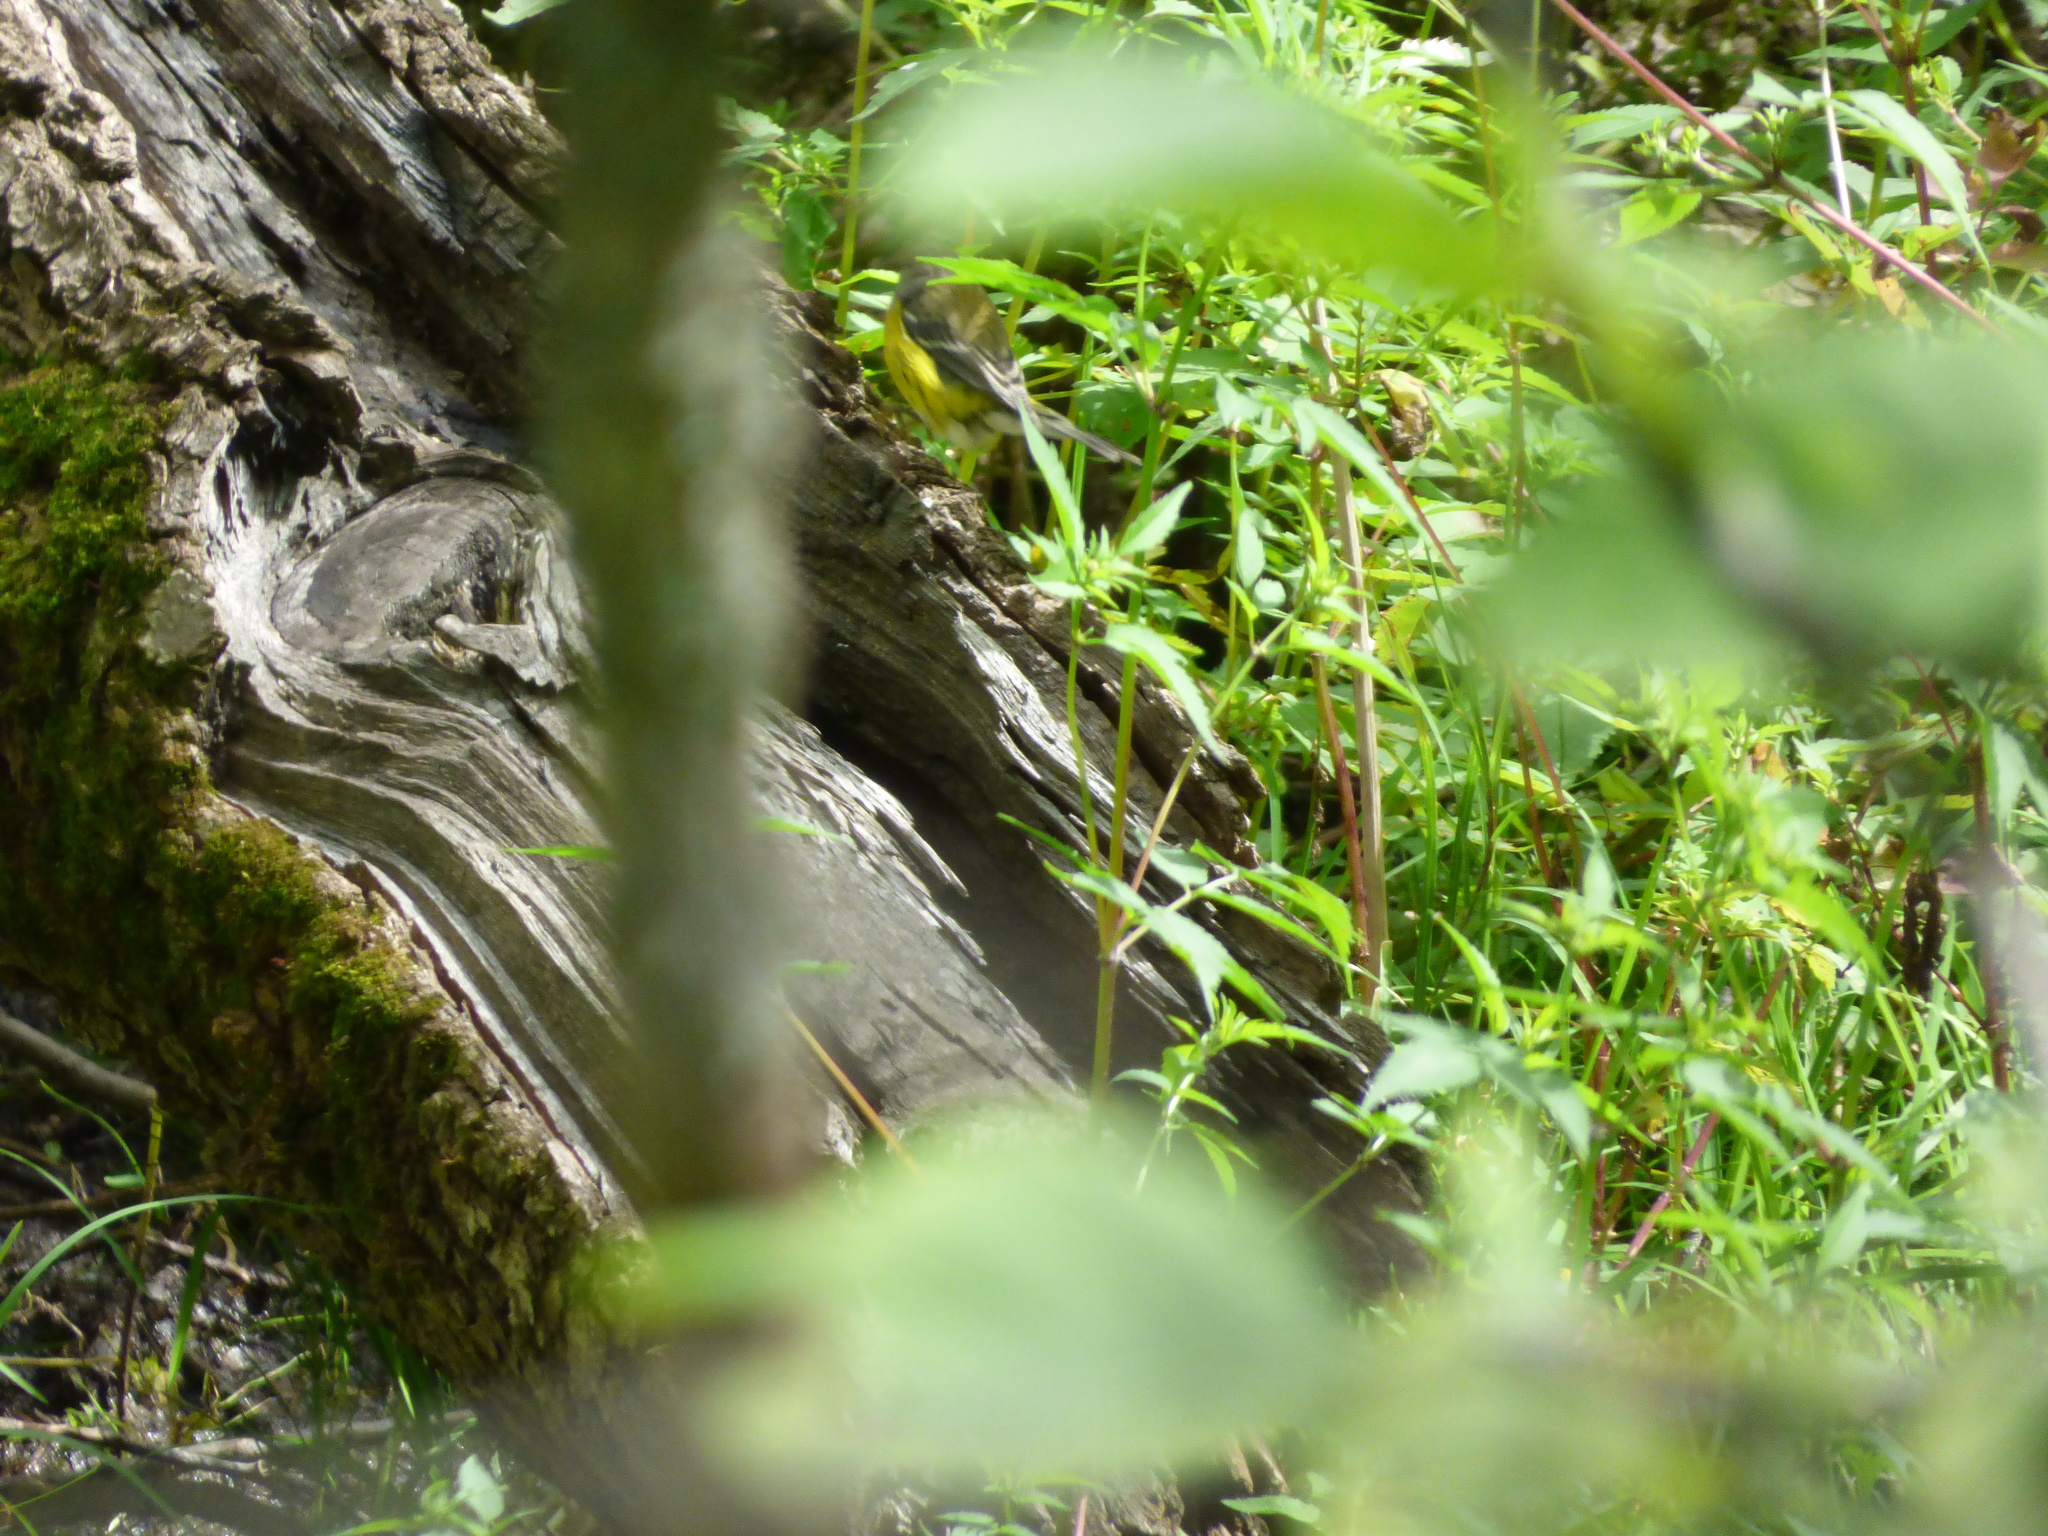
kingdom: Animalia
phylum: Chordata
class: Aves
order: Passeriformes
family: Parulidae
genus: Setophaga
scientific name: Setophaga magnolia
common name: Magnolia warbler
